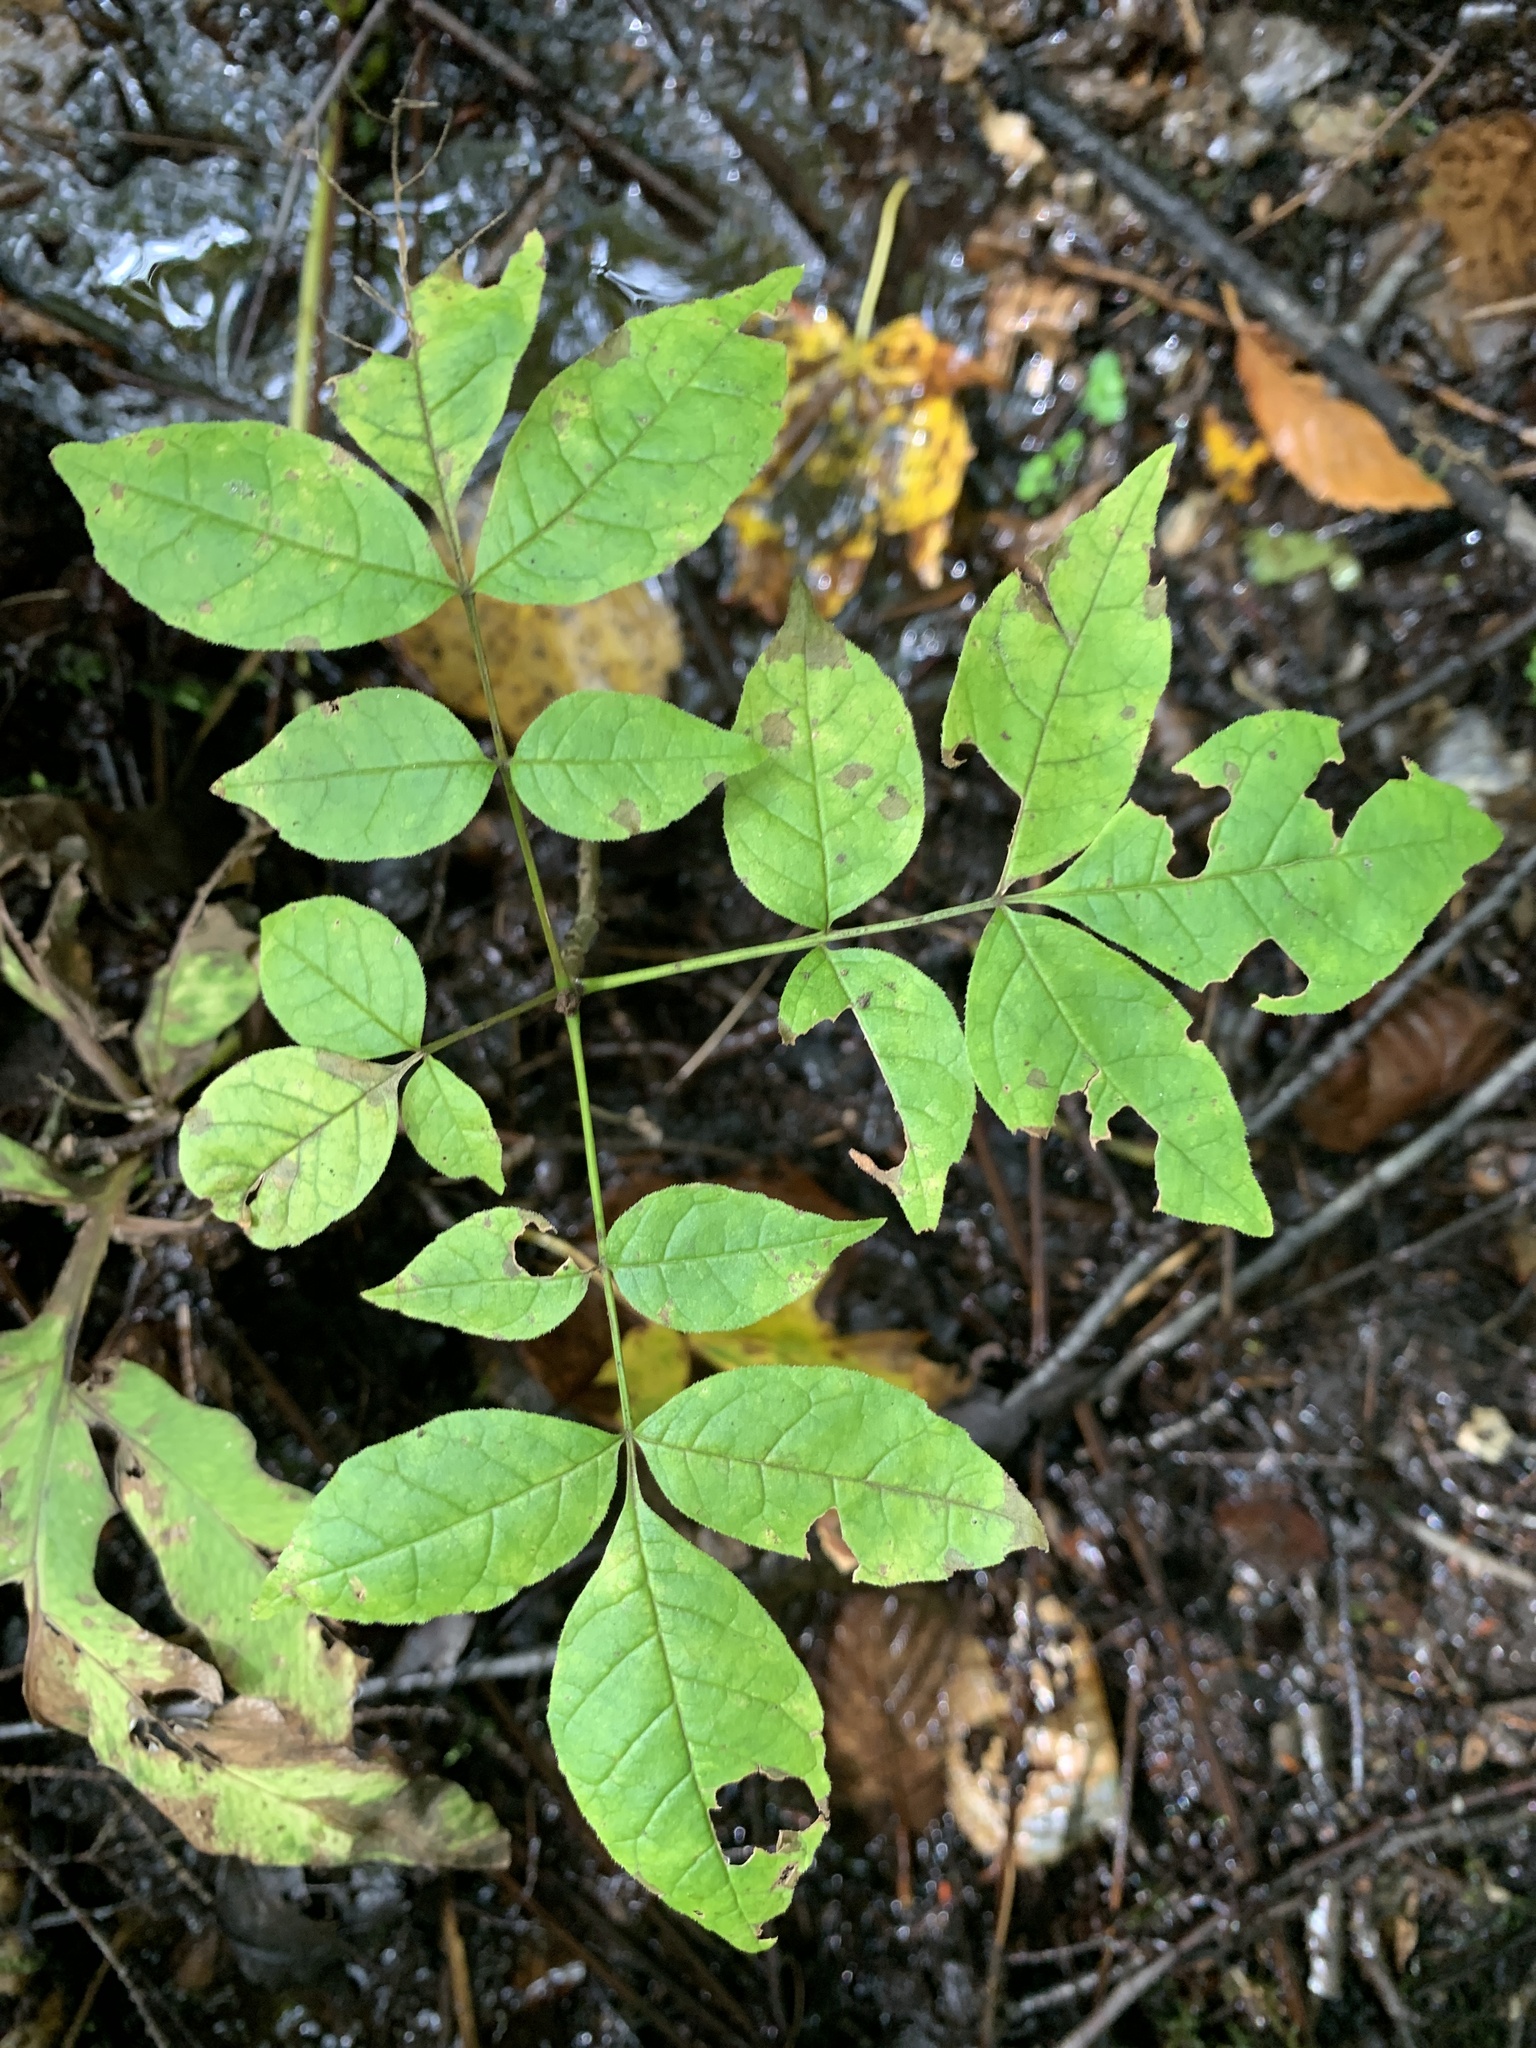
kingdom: Plantae
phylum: Tracheophyta
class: Magnoliopsida
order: Lamiales
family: Oleaceae
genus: Fraxinus
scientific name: Fraxinus nigra
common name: Black ash
